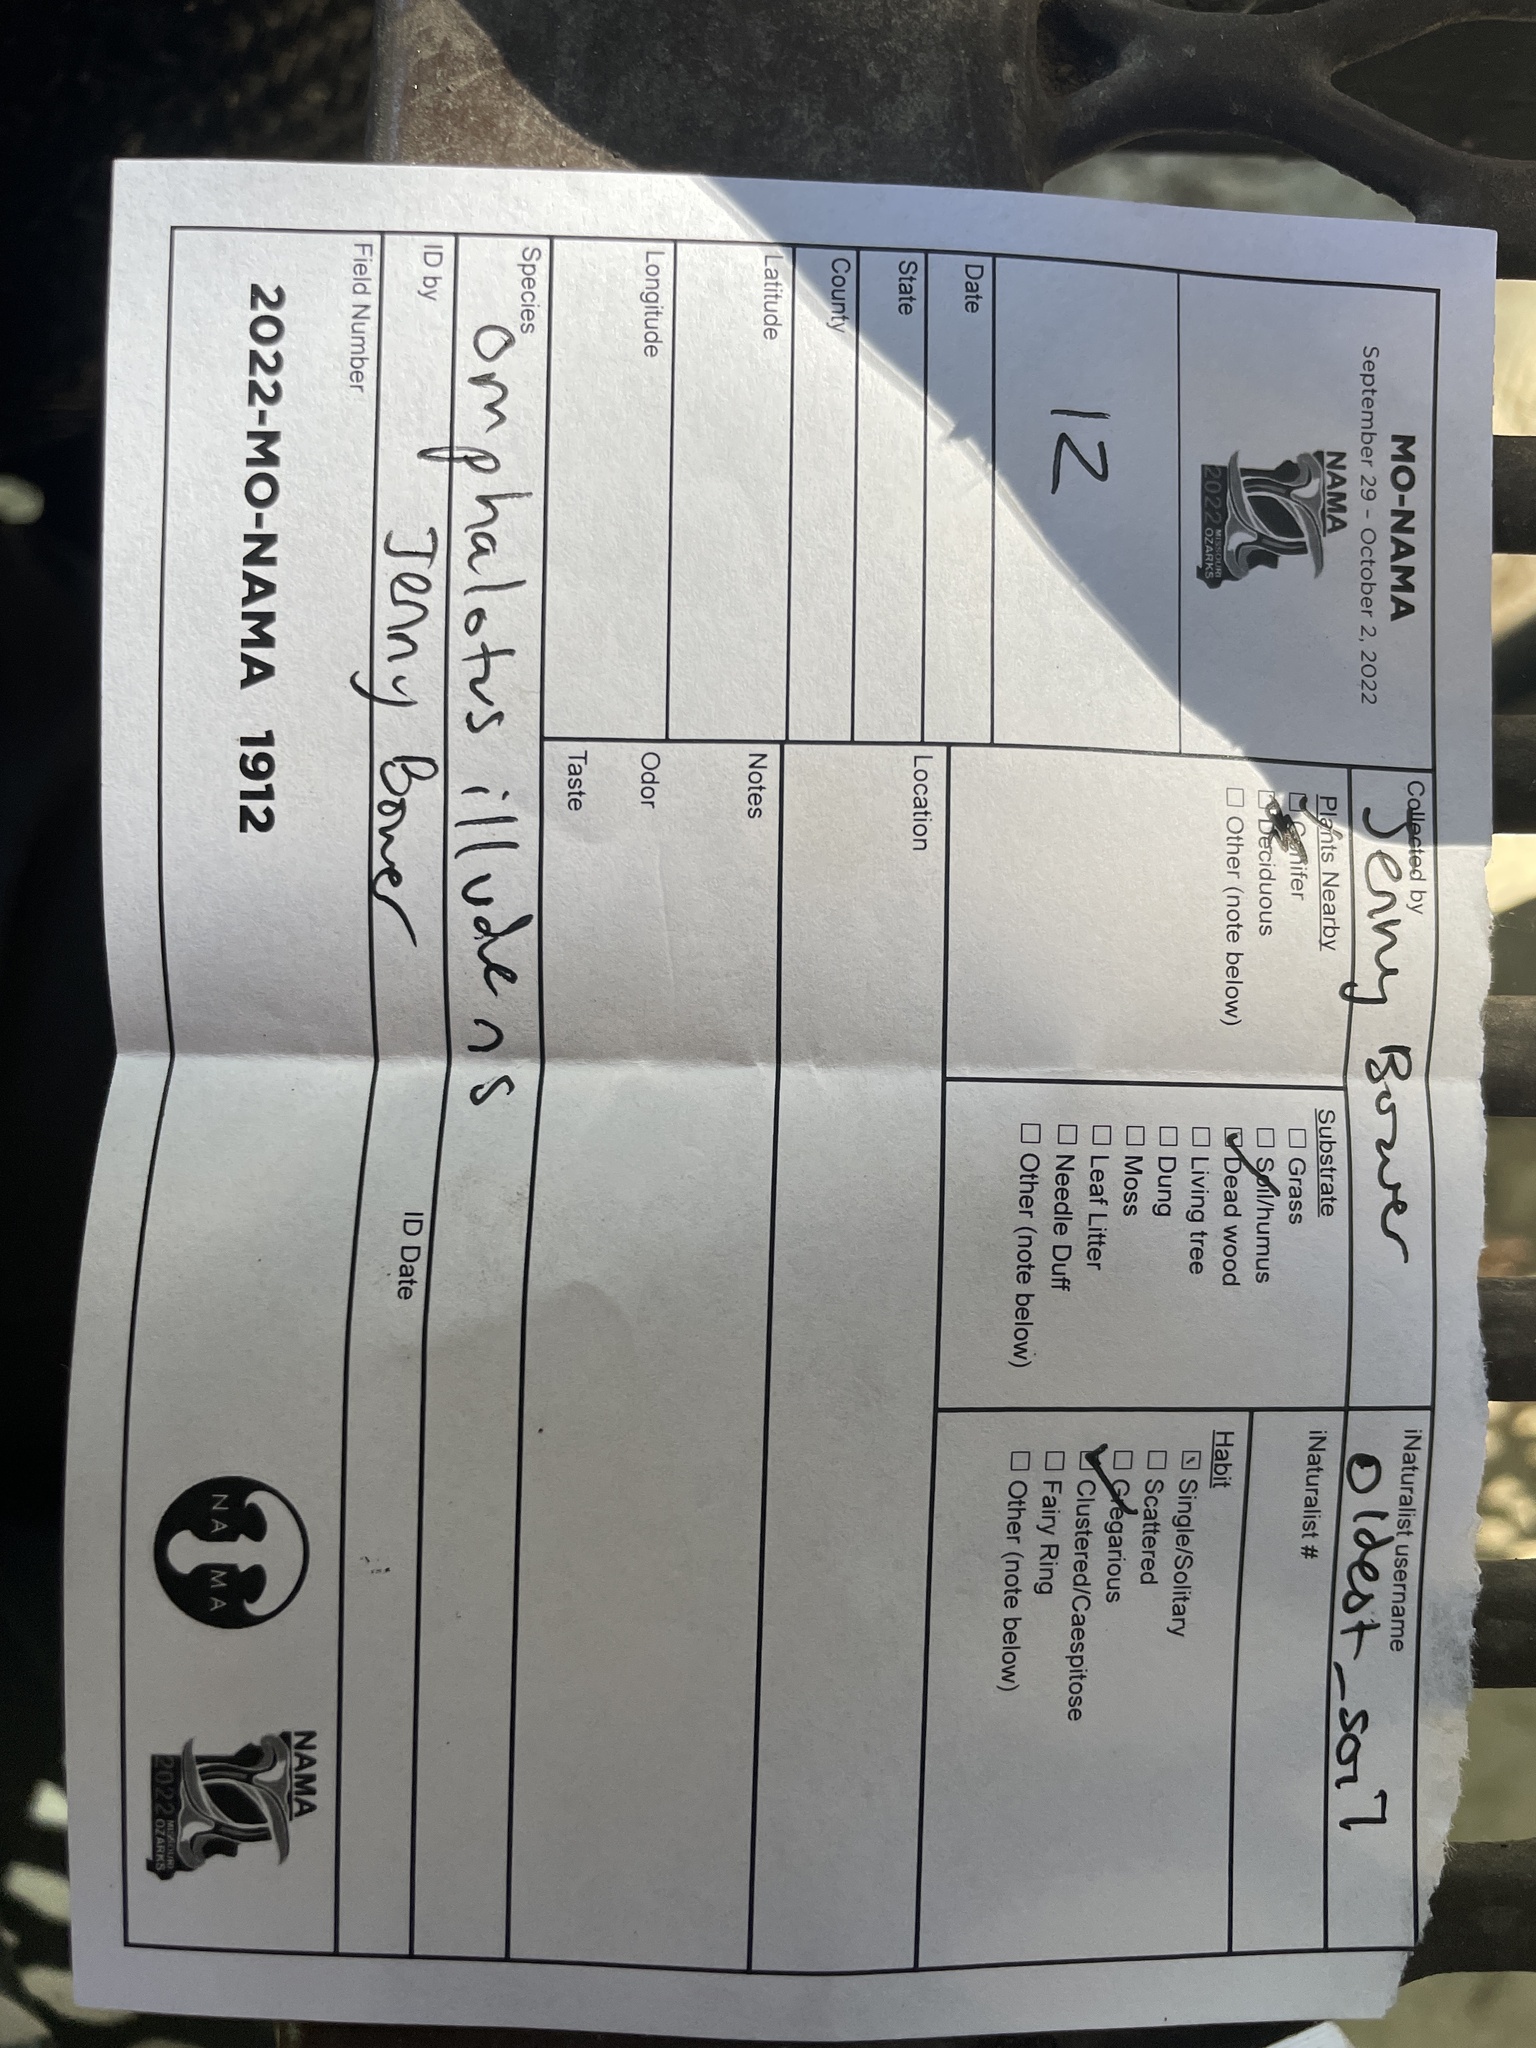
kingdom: Fungi
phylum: Basidiomycota
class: Agaricomycetes
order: Agaricales
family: Omphalotaceae
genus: Omphalotus
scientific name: Omphalotus illudens
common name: Jack o lantern
